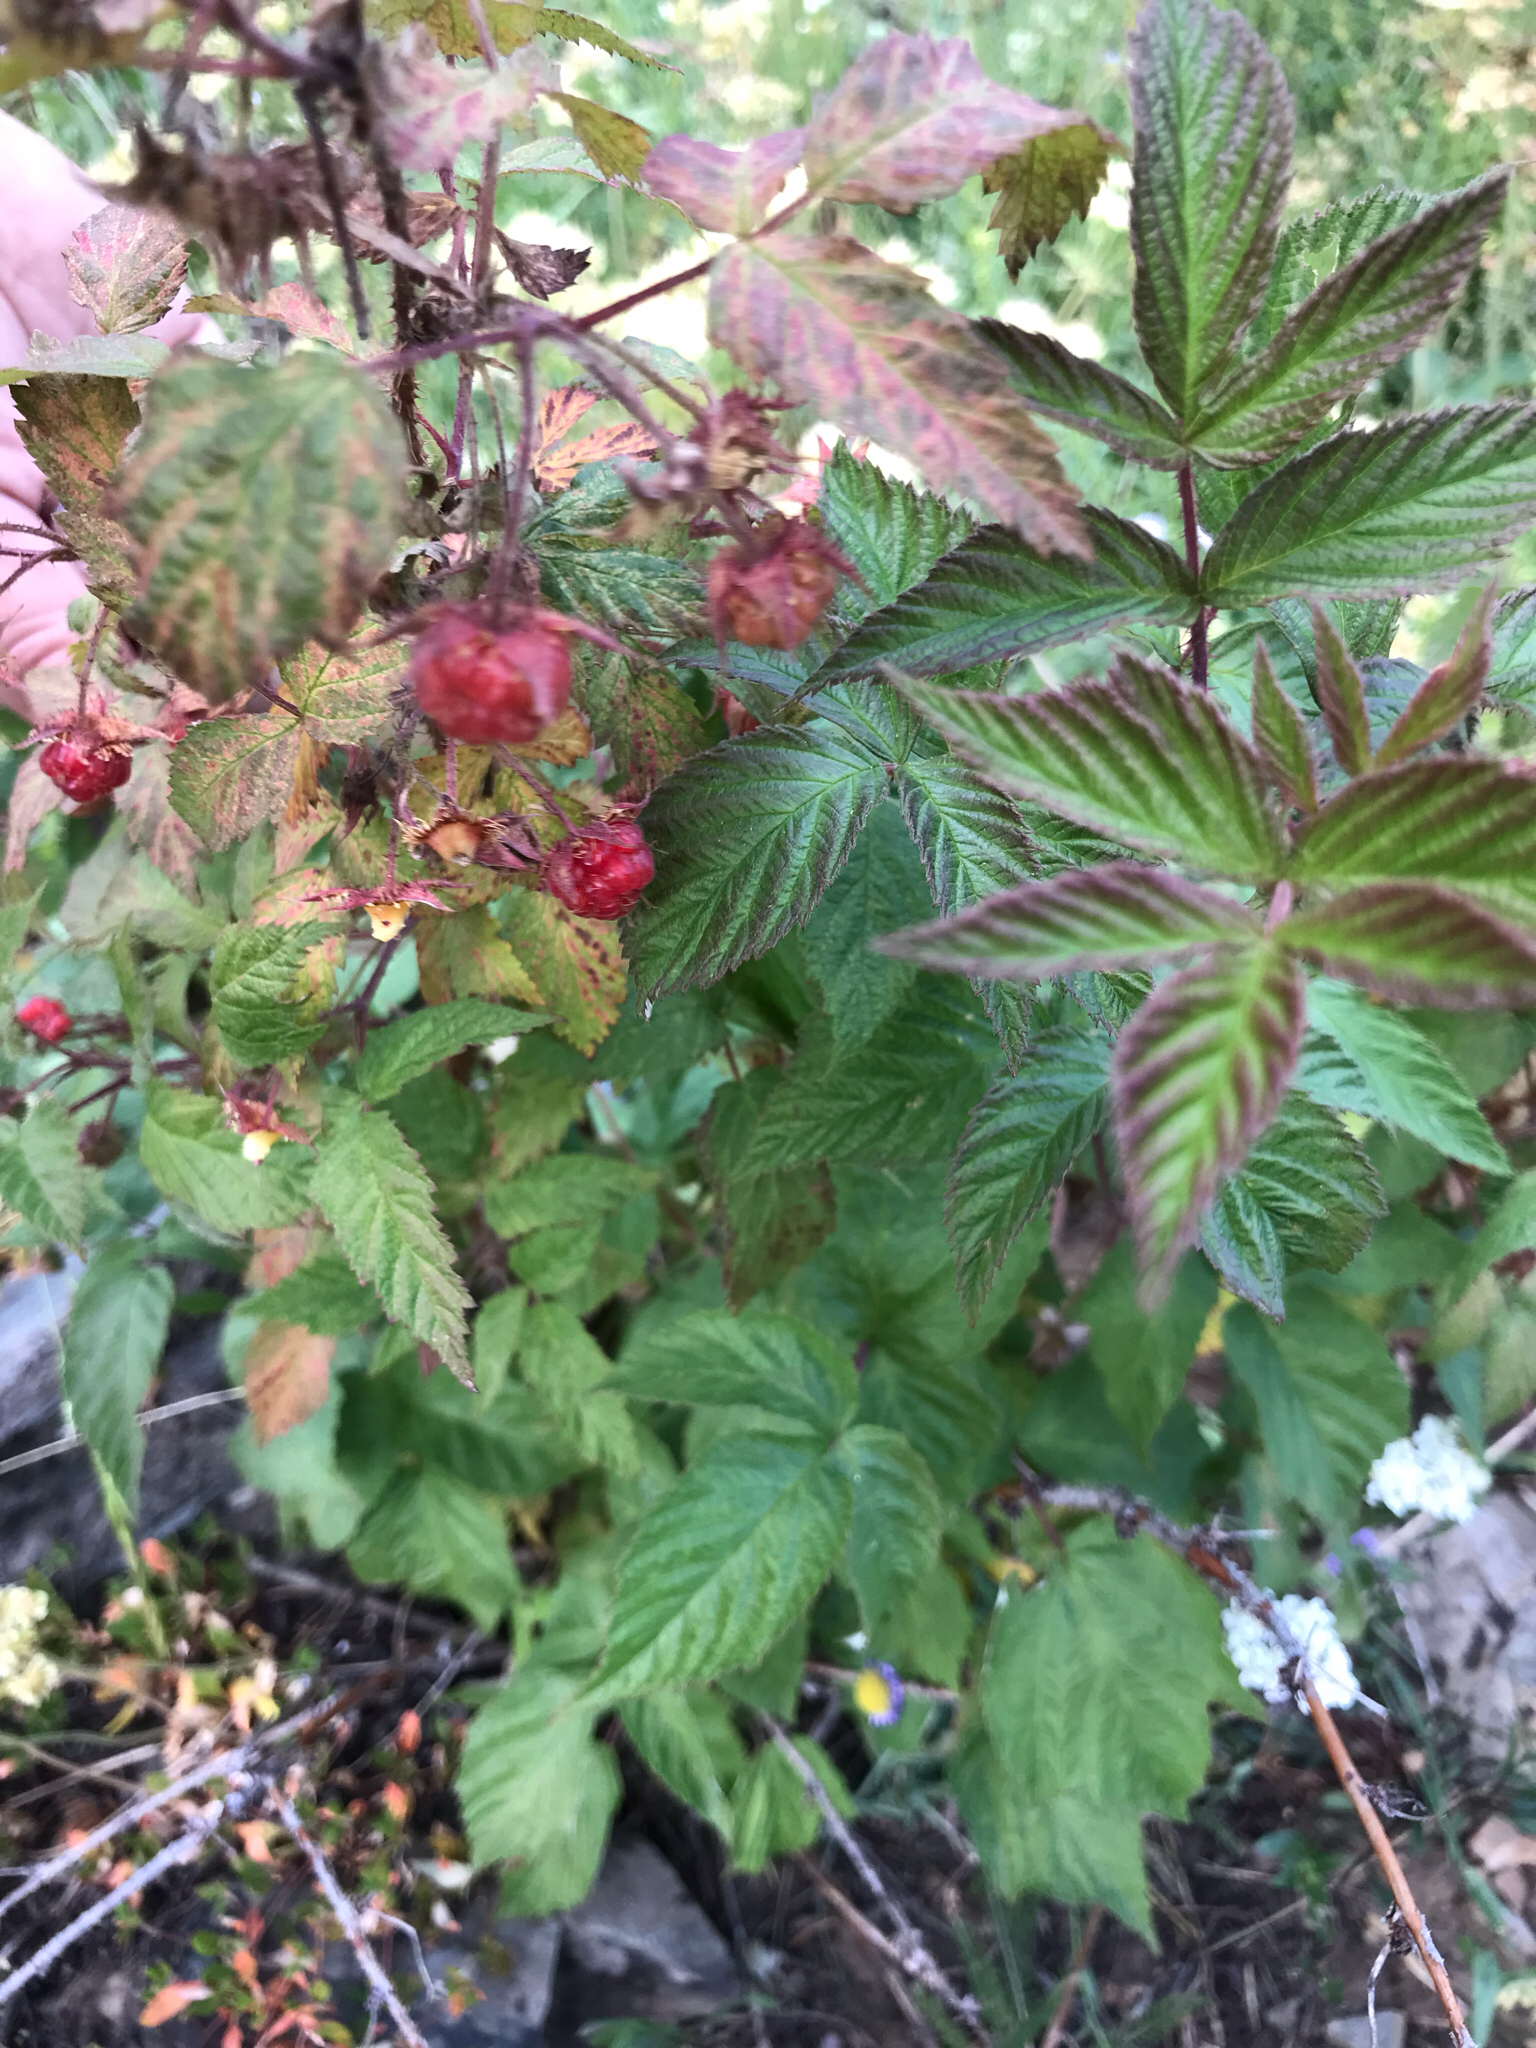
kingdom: Plantae
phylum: Tracheophyta
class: Magnoliopsida
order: Rosales
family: Rosaceae
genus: Rubus
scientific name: Rubus idaeus
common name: Raspberry
